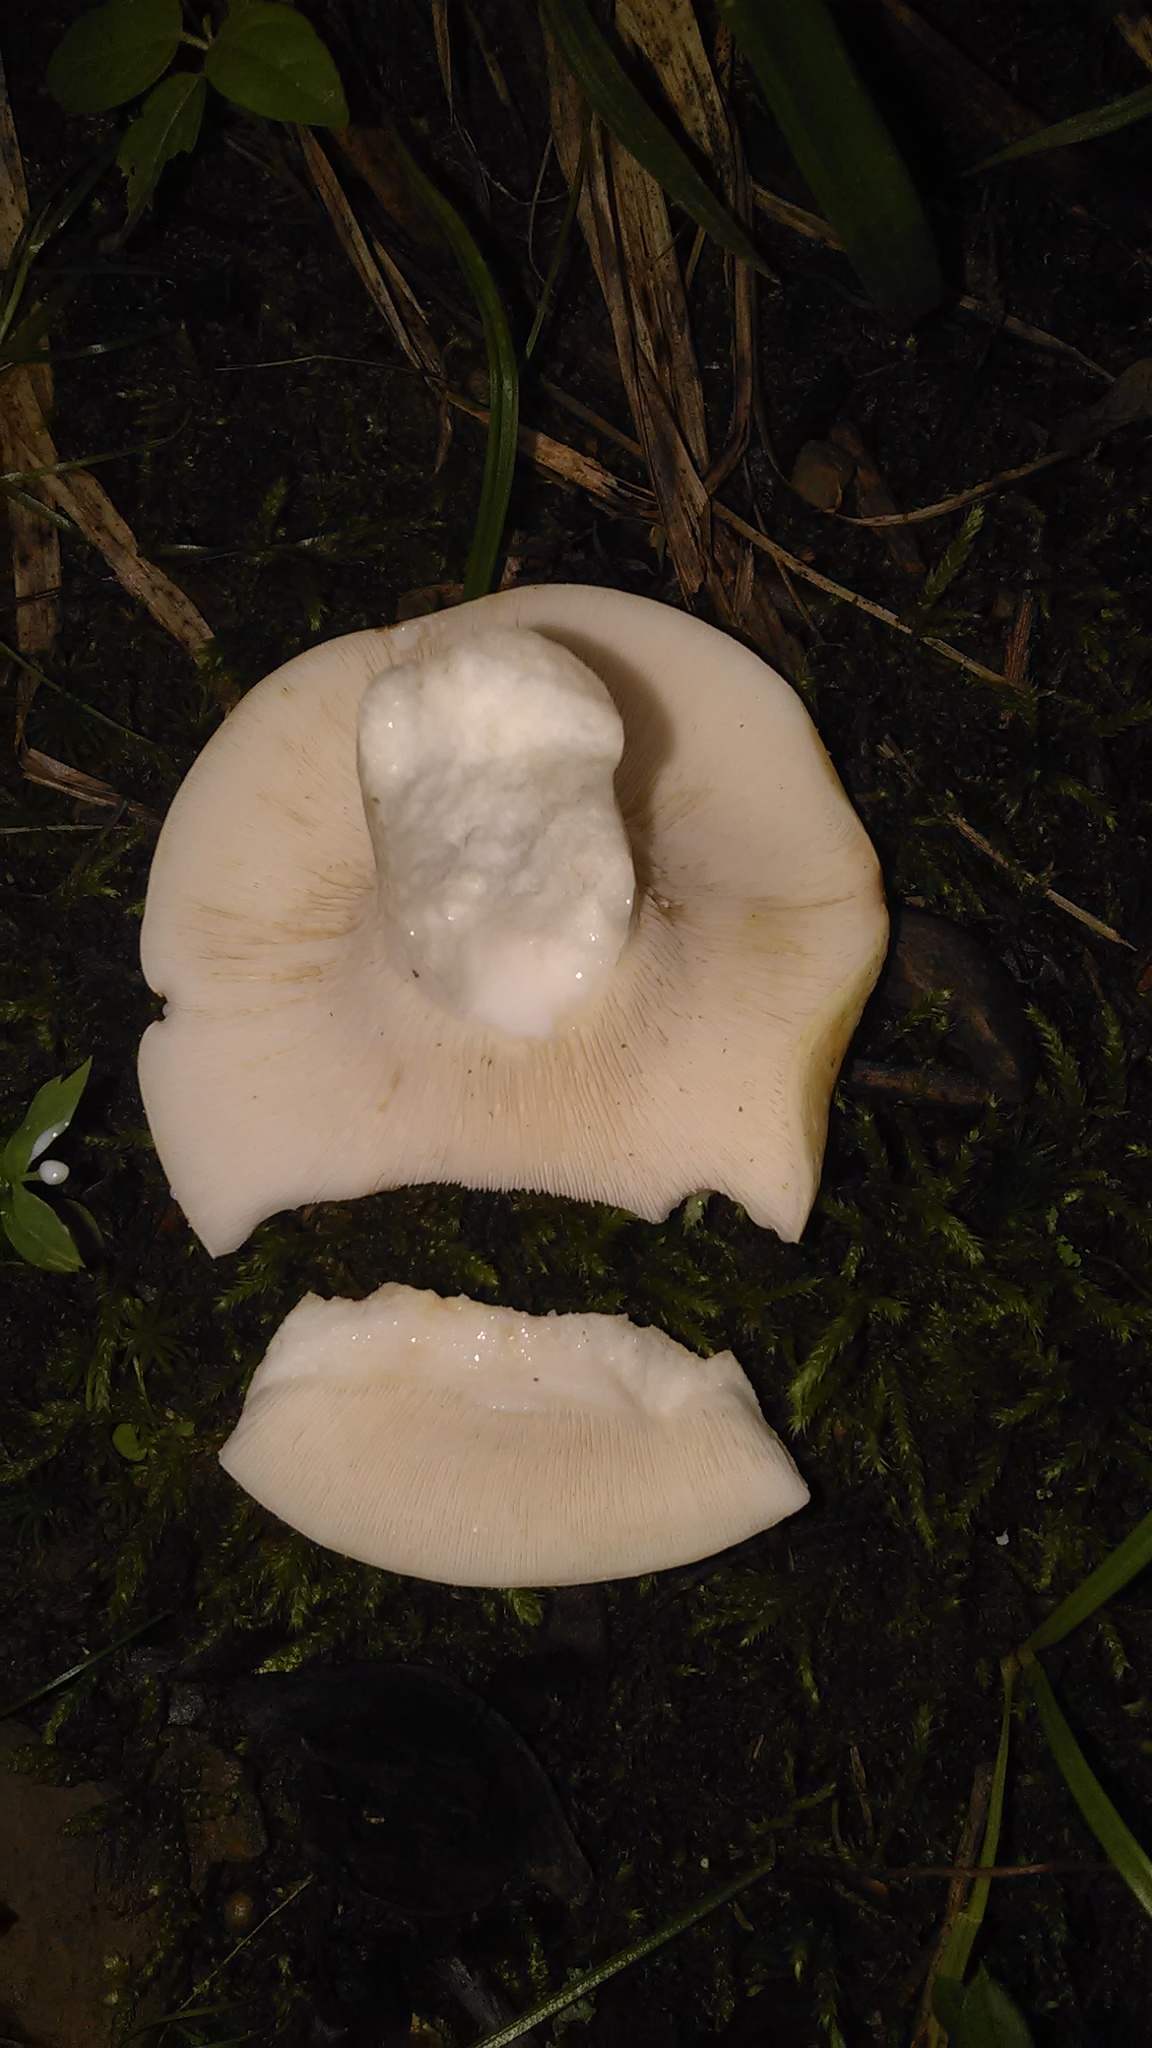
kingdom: Fungi
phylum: Basidiomycota
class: Agaricomycetes
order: Russulales
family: Russulaceae
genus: Lactifluus
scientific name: Lactifluus piperatus
